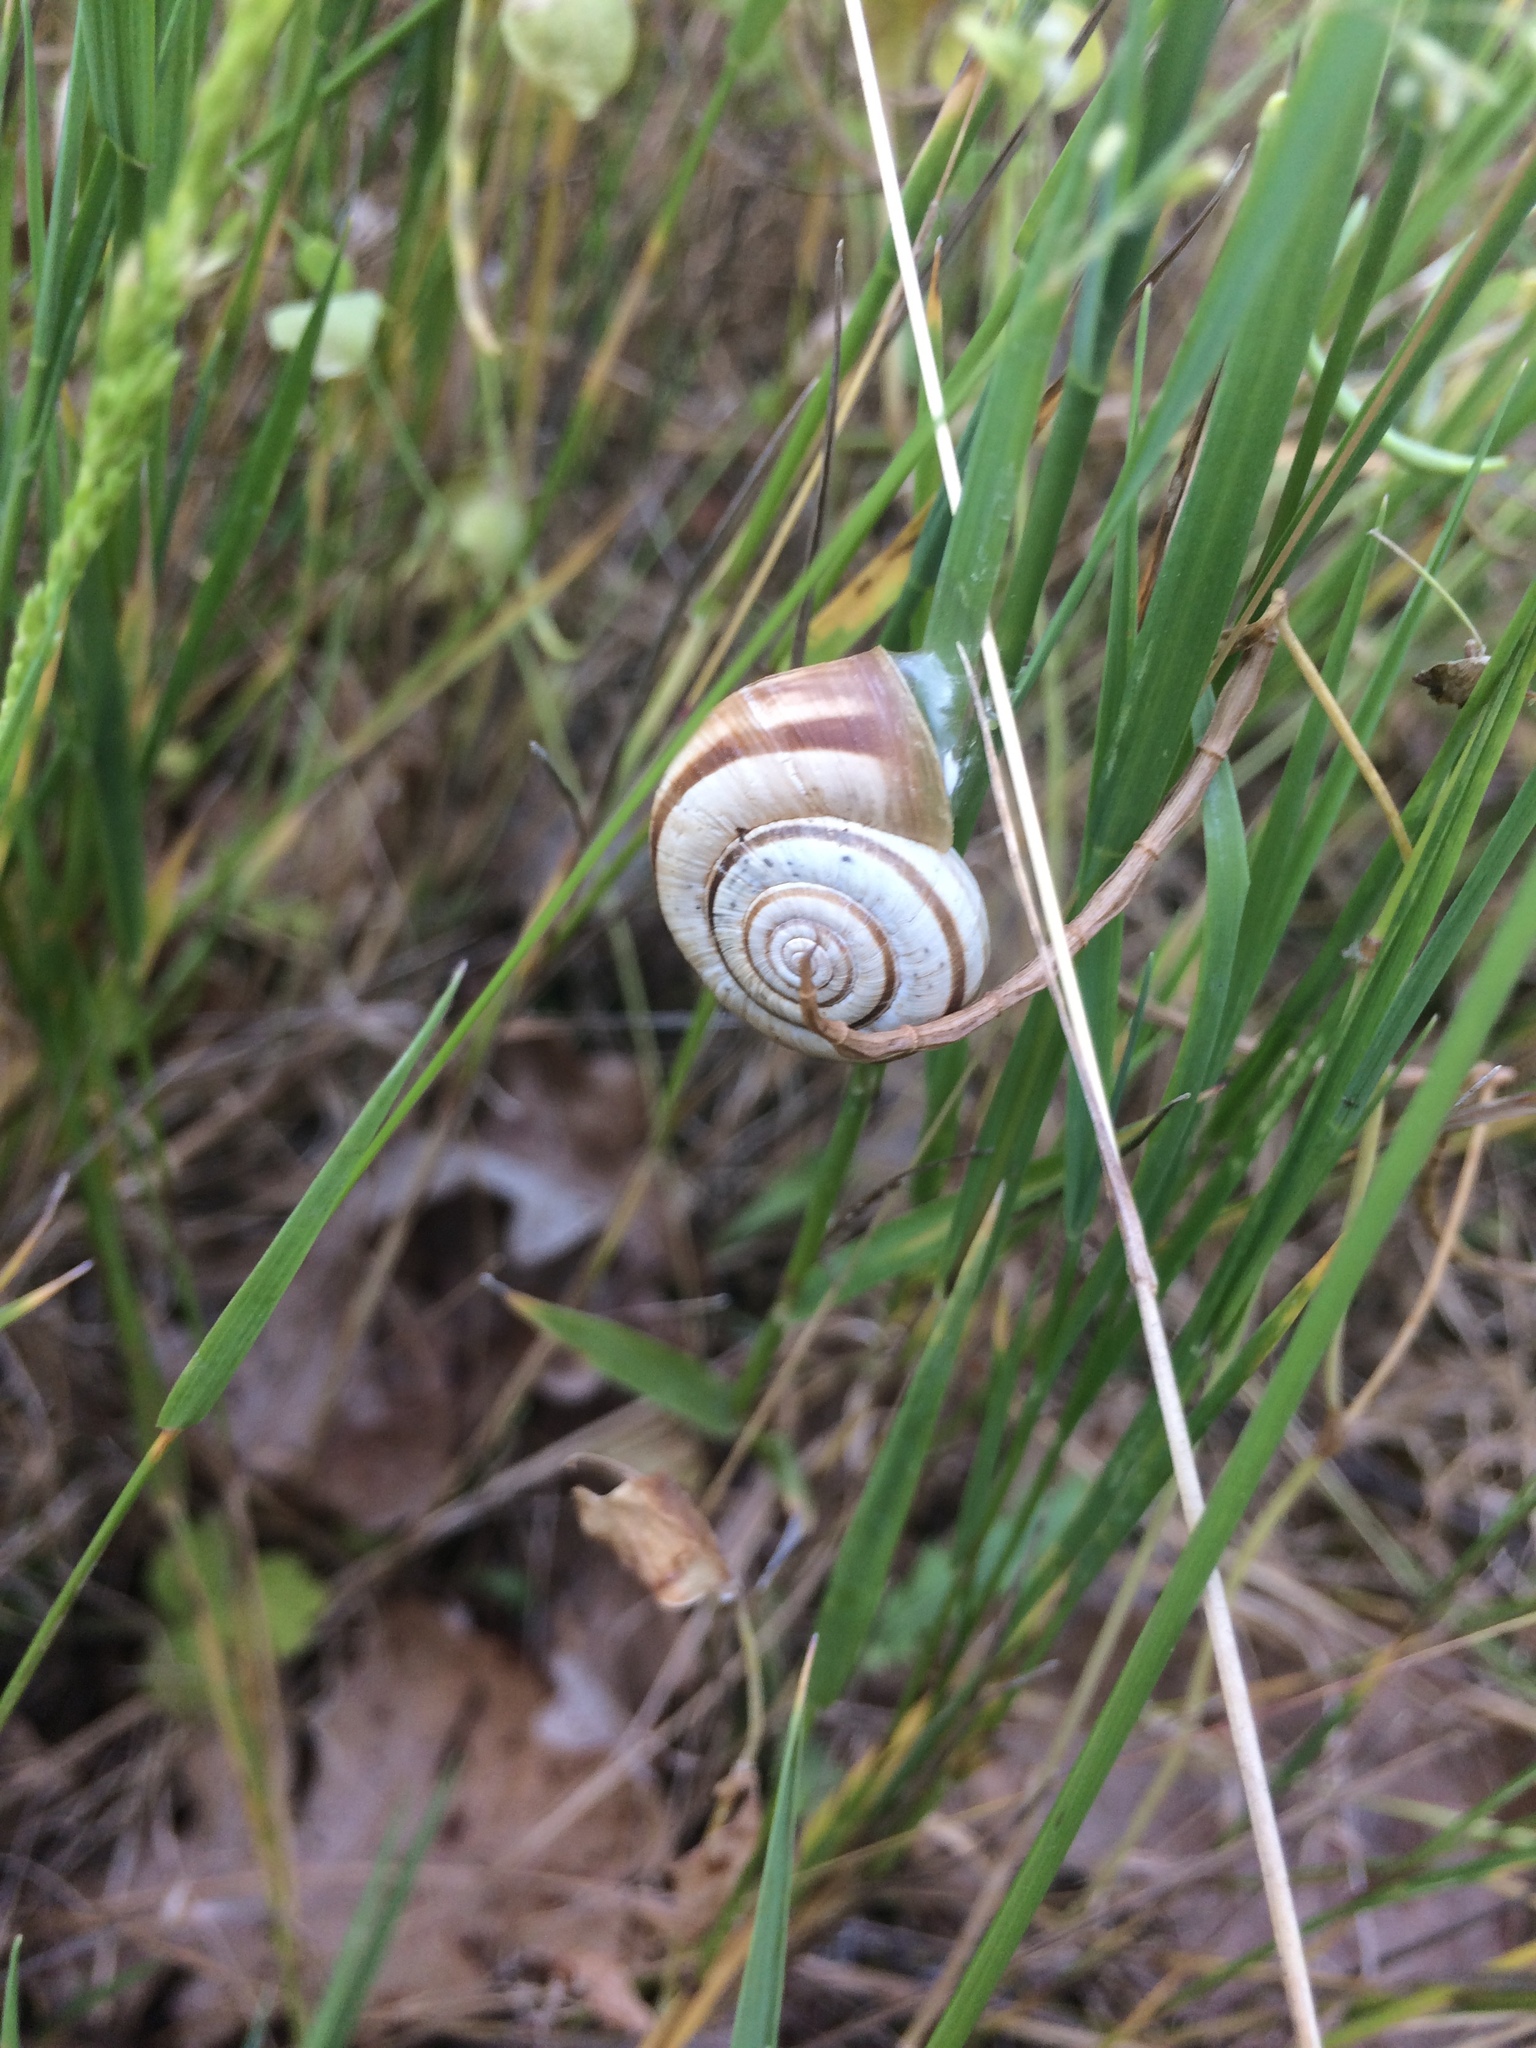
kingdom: Animalia
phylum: Mollusca
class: Gastropoda
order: Stylommatophora
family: Geomitridae
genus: Helicella
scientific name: Helicella itala
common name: Heath snail
